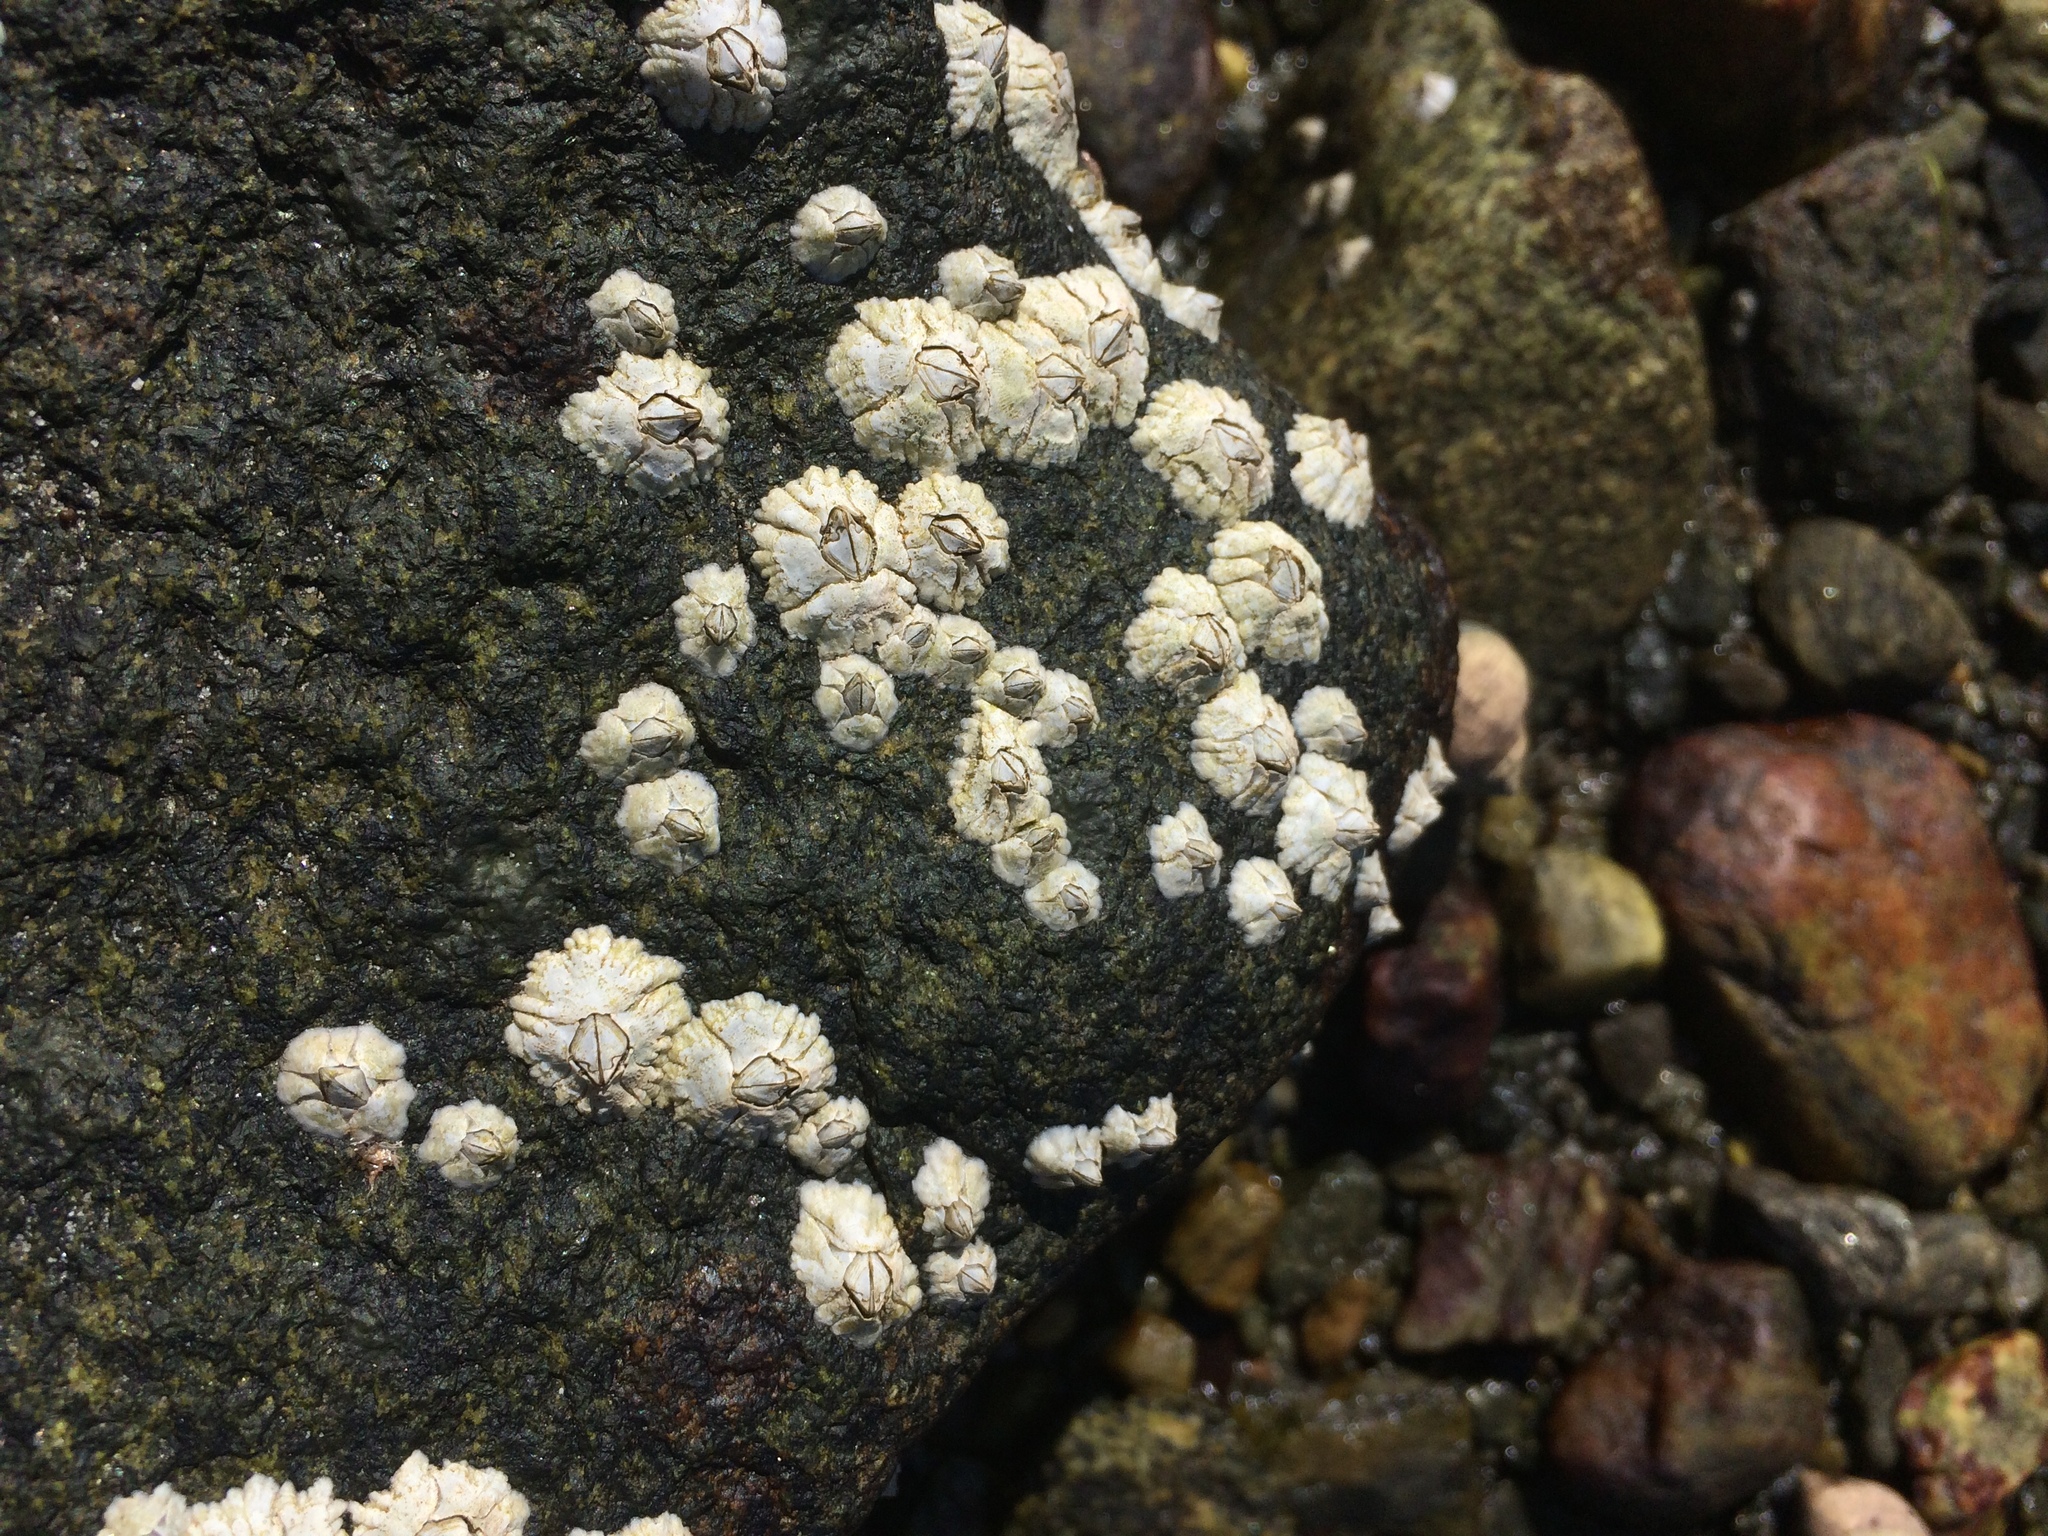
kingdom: Animalia
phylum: Arthropoda
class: Maxillopoda
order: Sessilia
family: Archaeobalanidae
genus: Semibalanus
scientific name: Semibalanus balanoides
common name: Acorn barnacle
